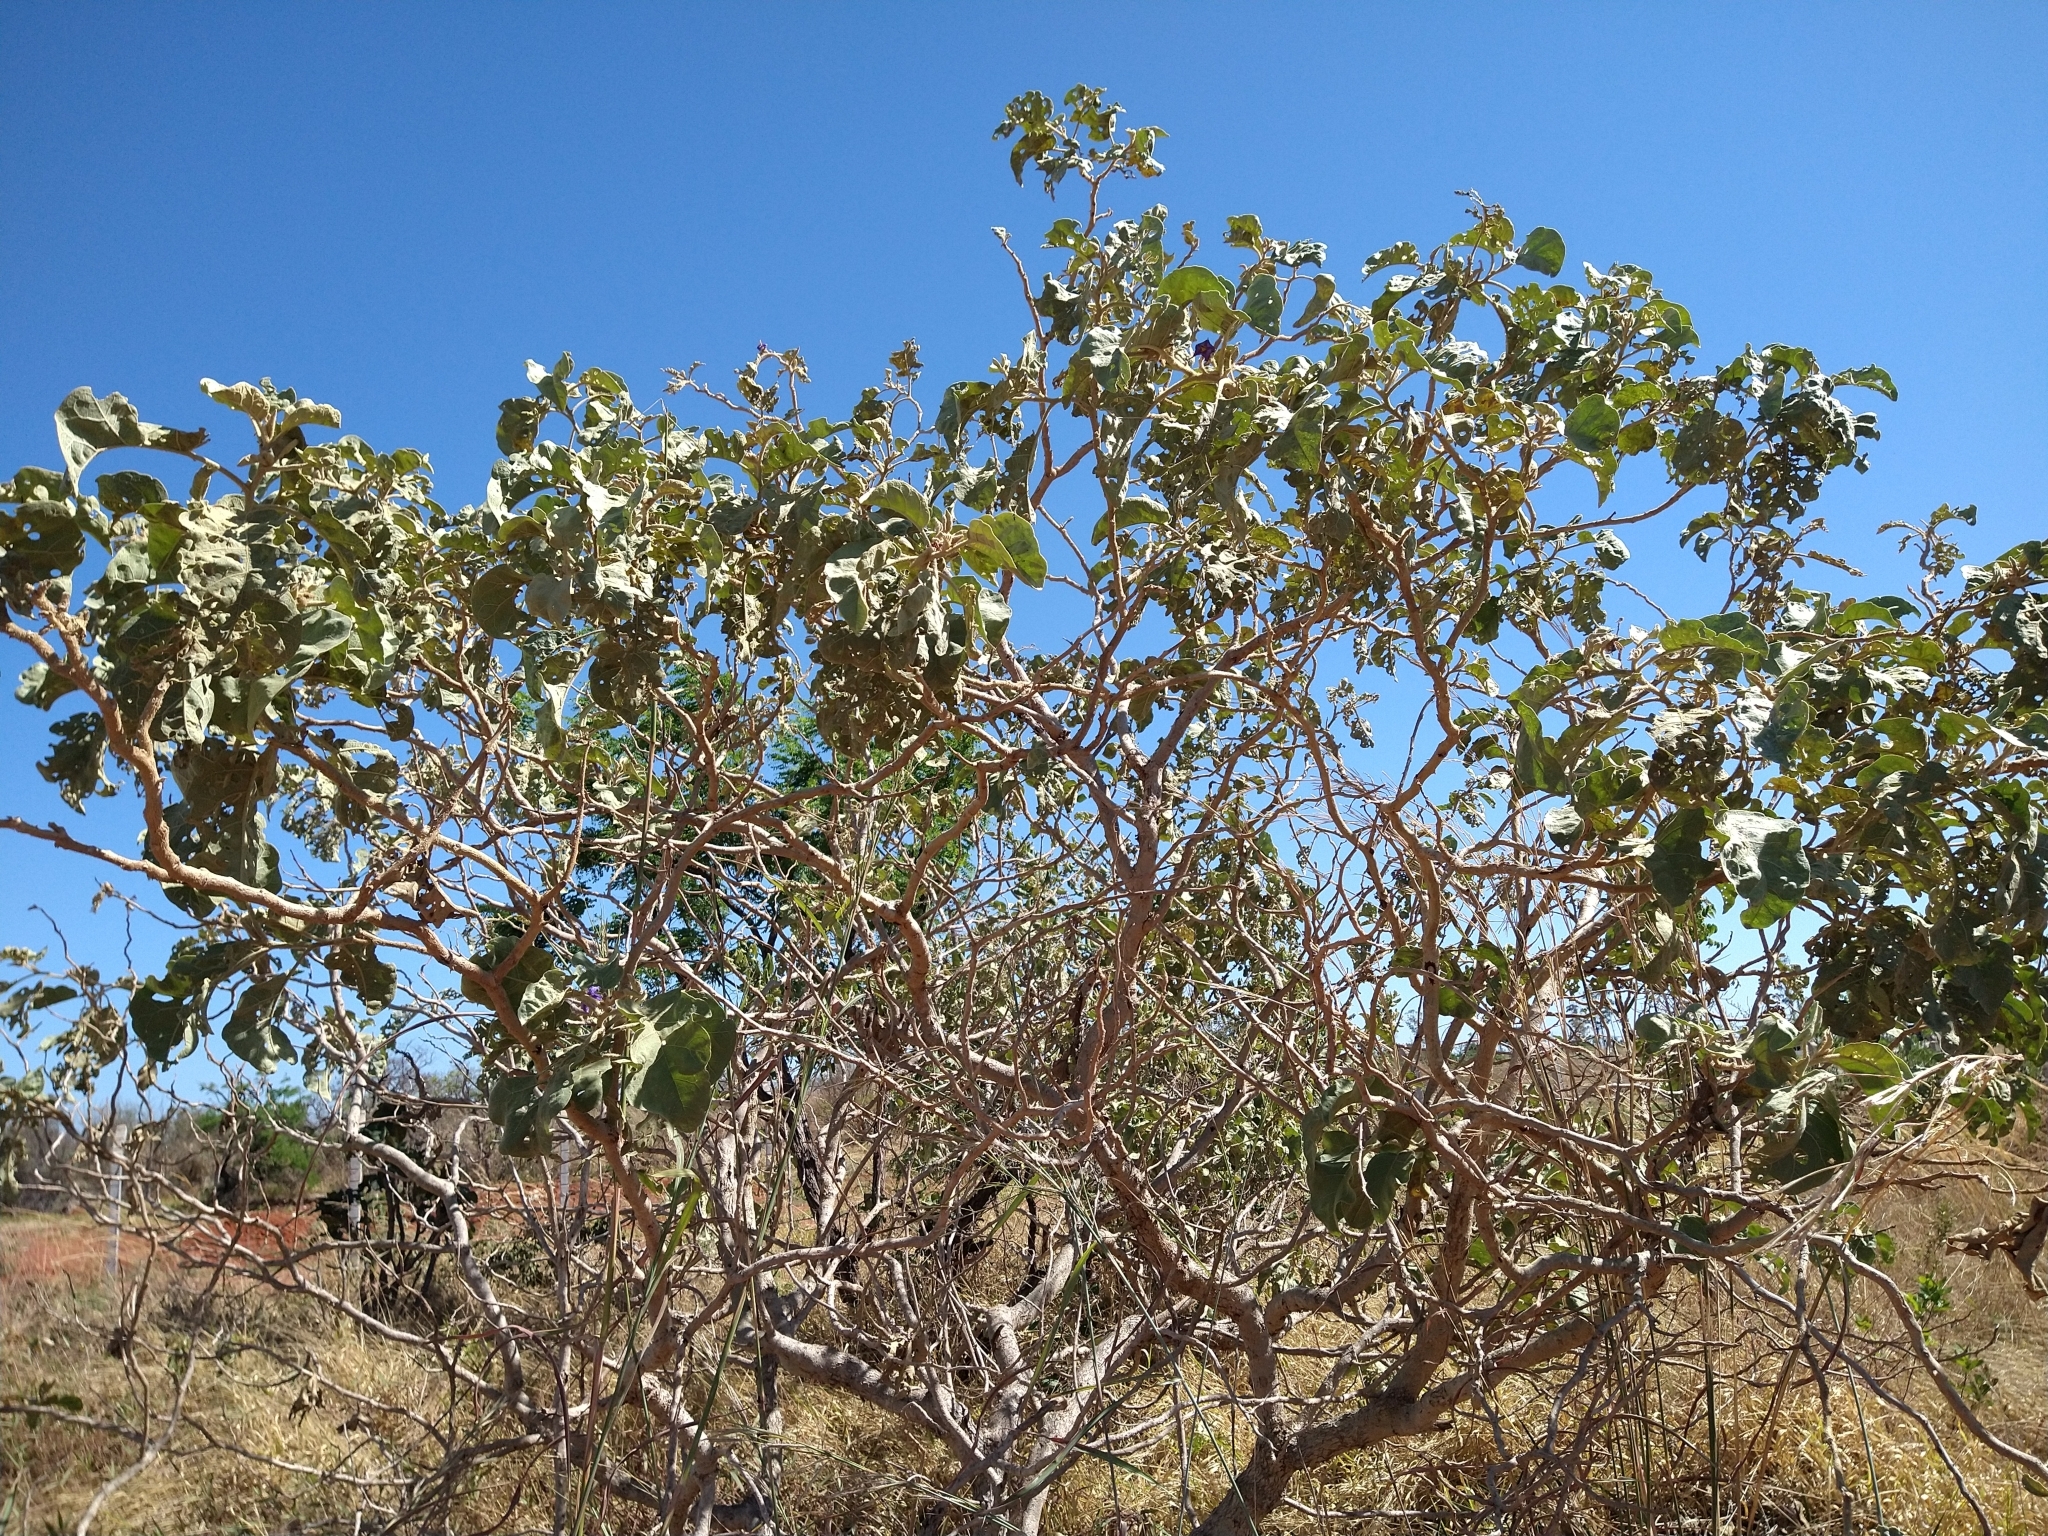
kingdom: Plantae
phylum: Tracheophyta
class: Magnoliopsida
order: Solanales
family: Solanaceae
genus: Solanum
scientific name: Solanum lycocarpum
